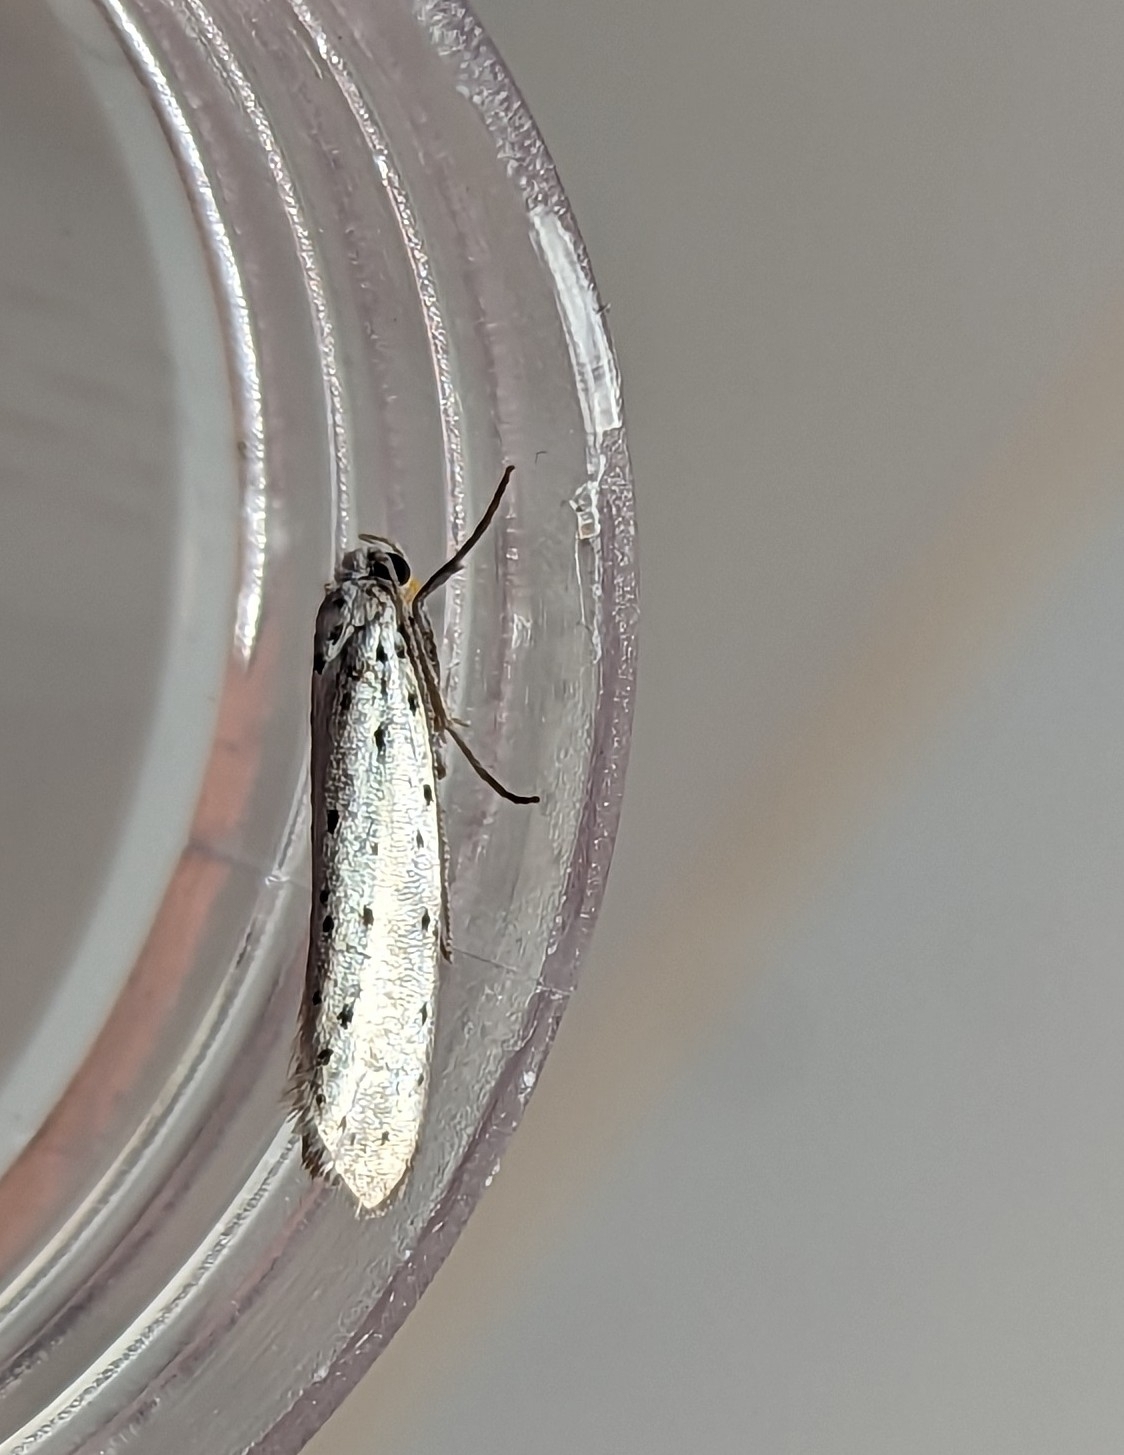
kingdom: Animalia
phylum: Arthropoda
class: Insecta
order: Lepidoptera
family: Yponomeutidae
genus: Yponomeuta
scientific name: Yponomeuta
